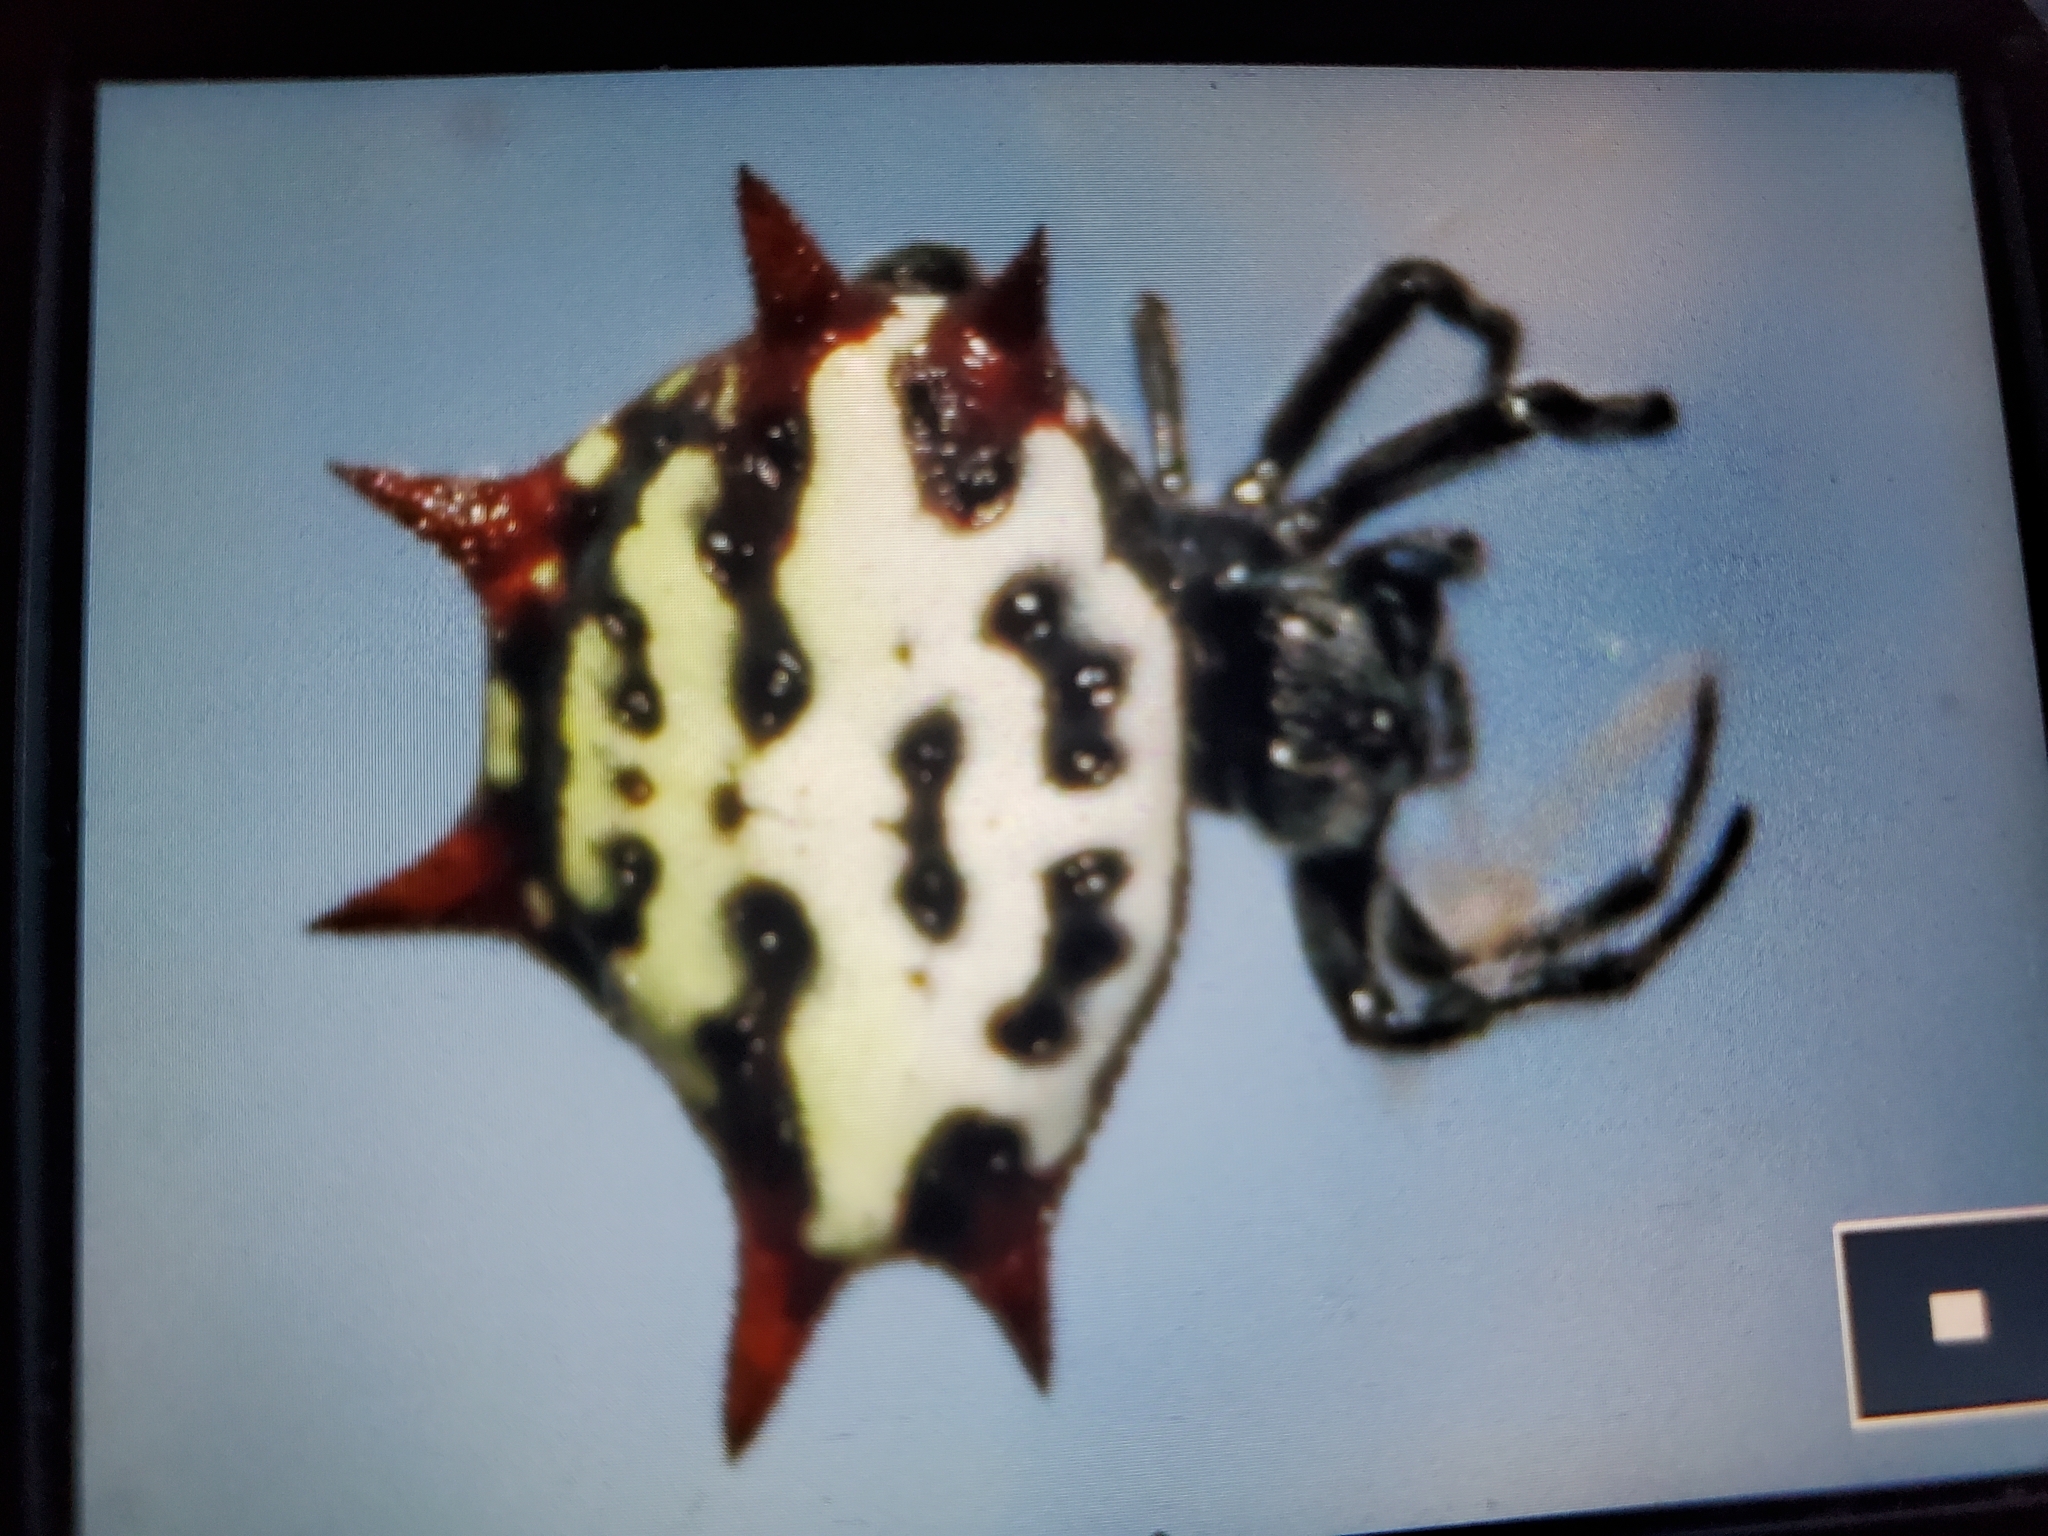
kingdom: Animalia
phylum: Arthropoda
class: Arachnida
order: Araneae
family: Araneidae
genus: Gasteracantha
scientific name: Gasteracantha cancriformis
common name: Orb weavers
